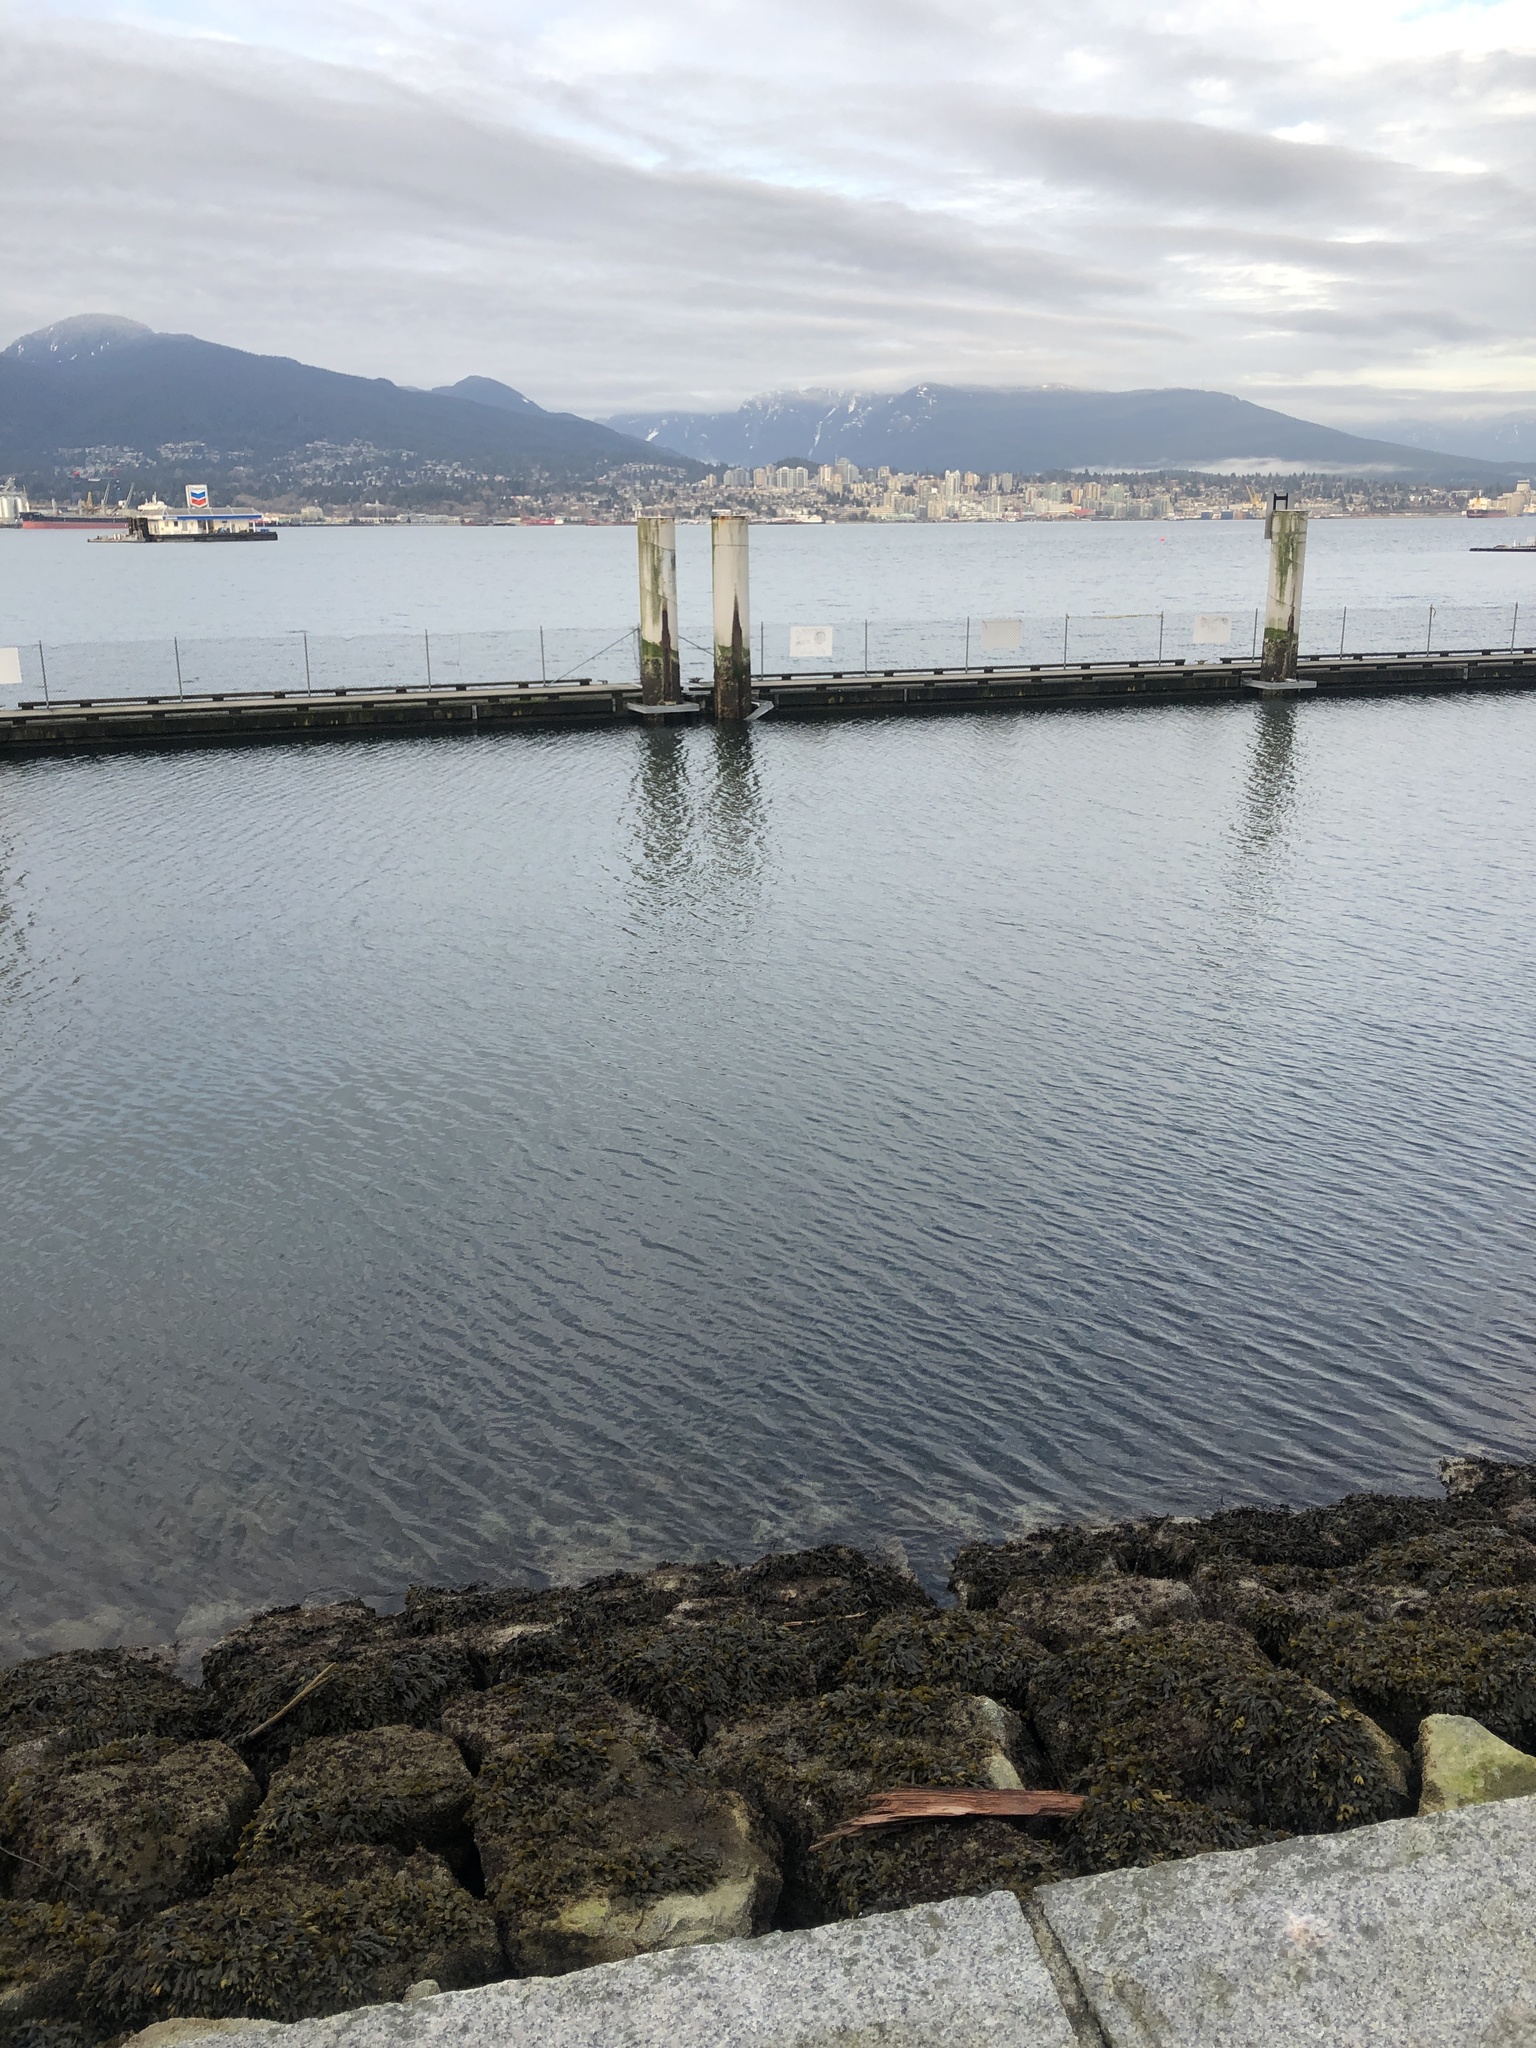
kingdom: Animalia
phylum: Chordata
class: Aves
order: Anseriformes
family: Anatidae
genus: Bucephala
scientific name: Bucephala albeola
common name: Bufflehead
